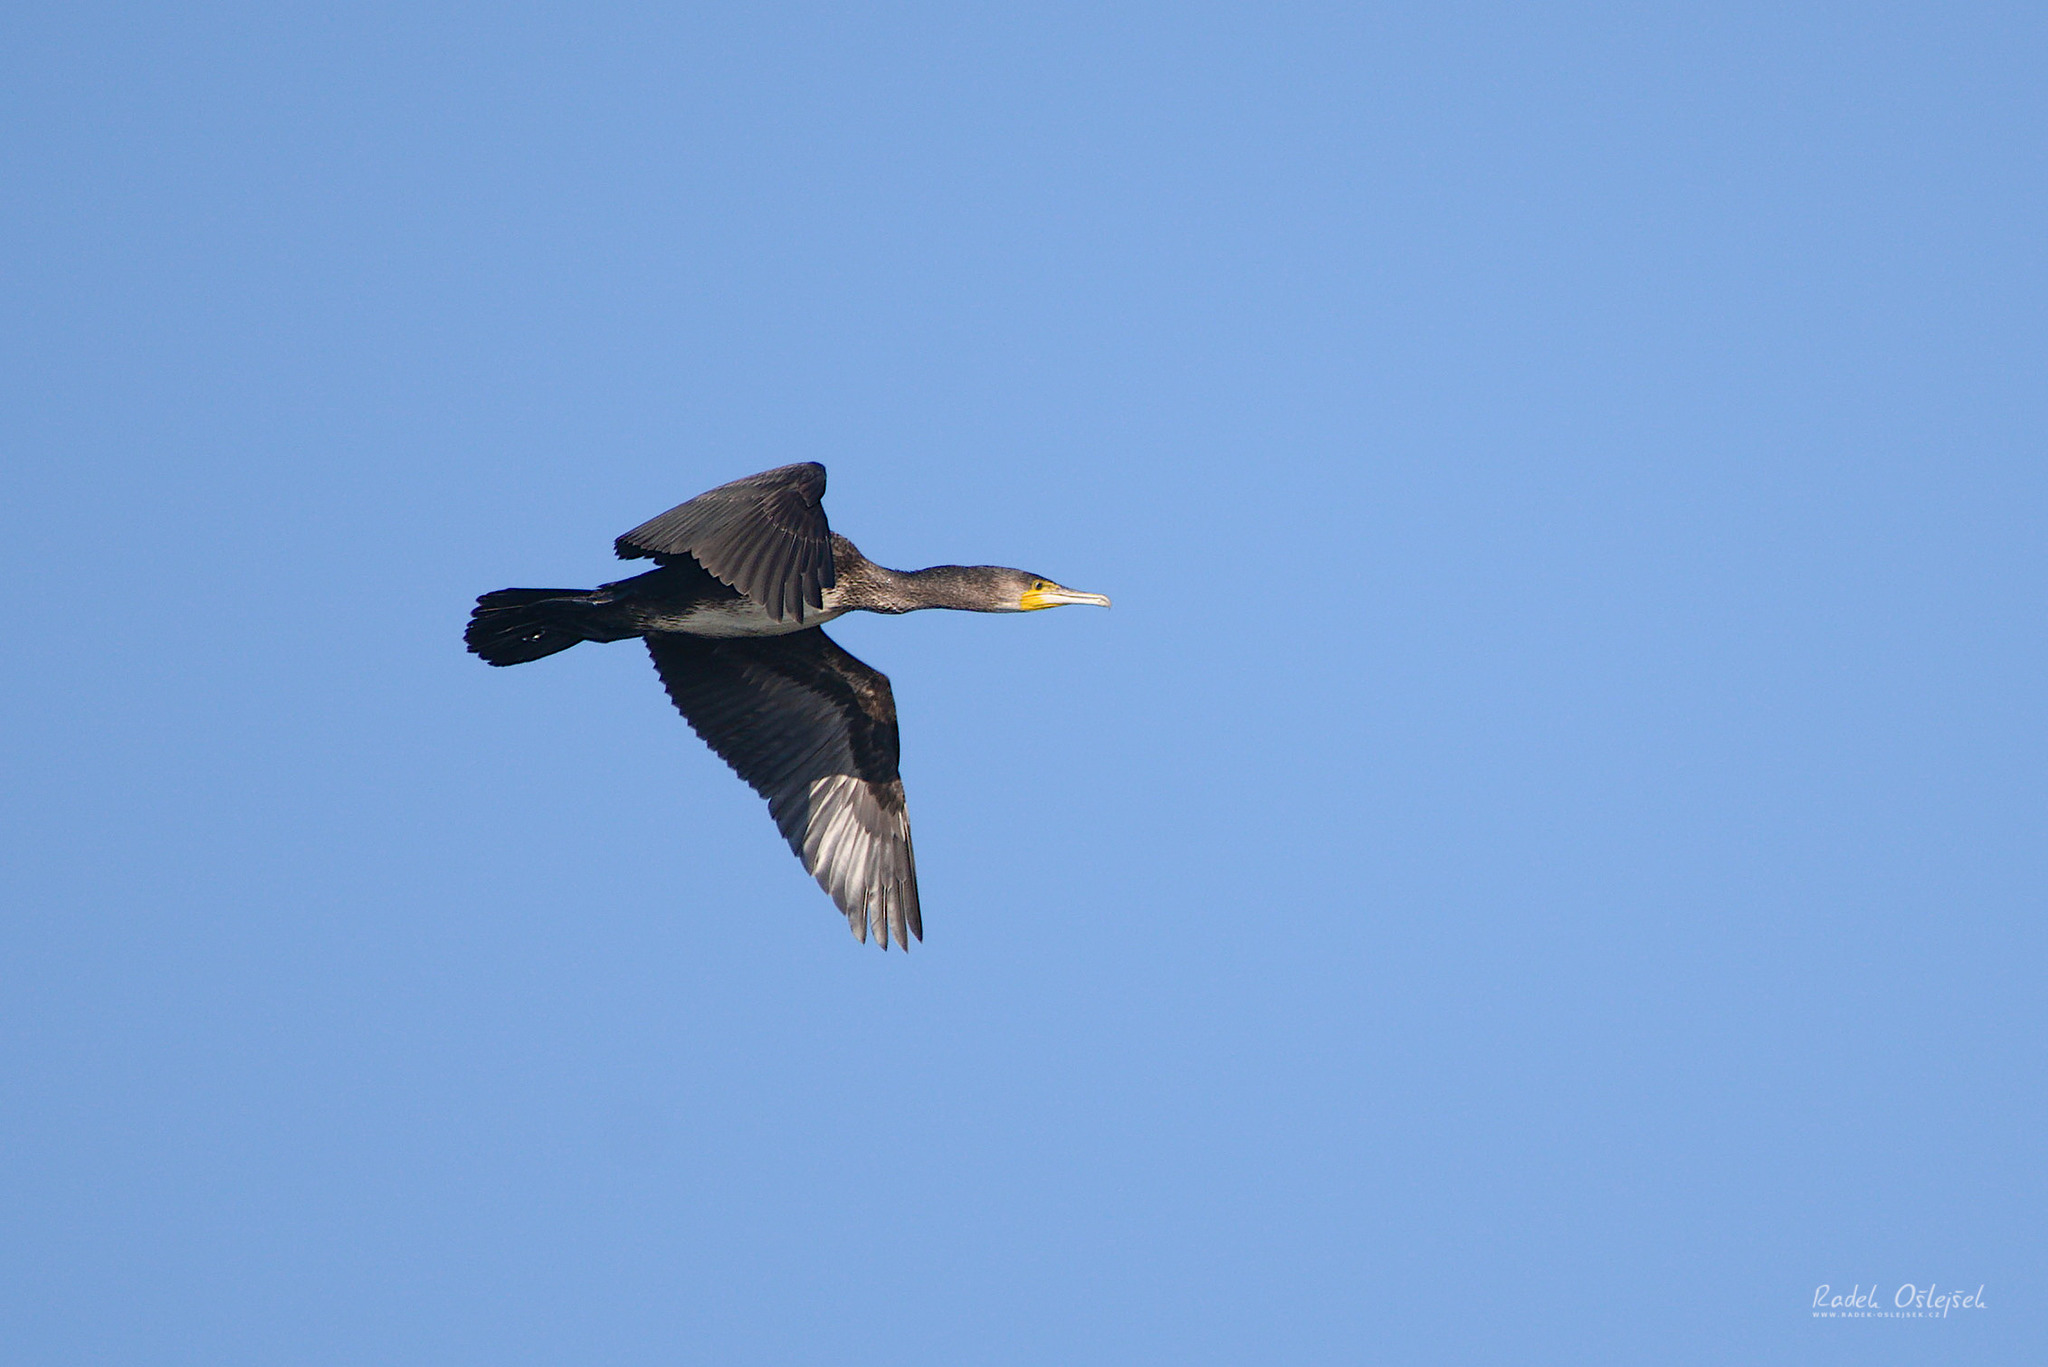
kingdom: Animalia
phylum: Chordata
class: Aves
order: Suliformes
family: Phalacrocoracidae
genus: Phalacrocorax
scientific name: Phalacrocorax carbo
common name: Great cormorant
